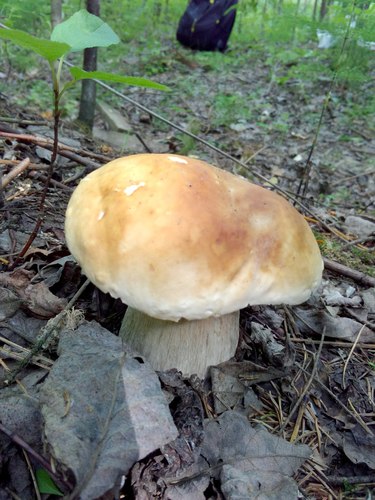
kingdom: Fungi
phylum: Basidiomycota
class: Agaricomycetes
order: Boletales
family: Boletaceae
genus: Boletus
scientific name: Boletus edulis
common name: Cep
